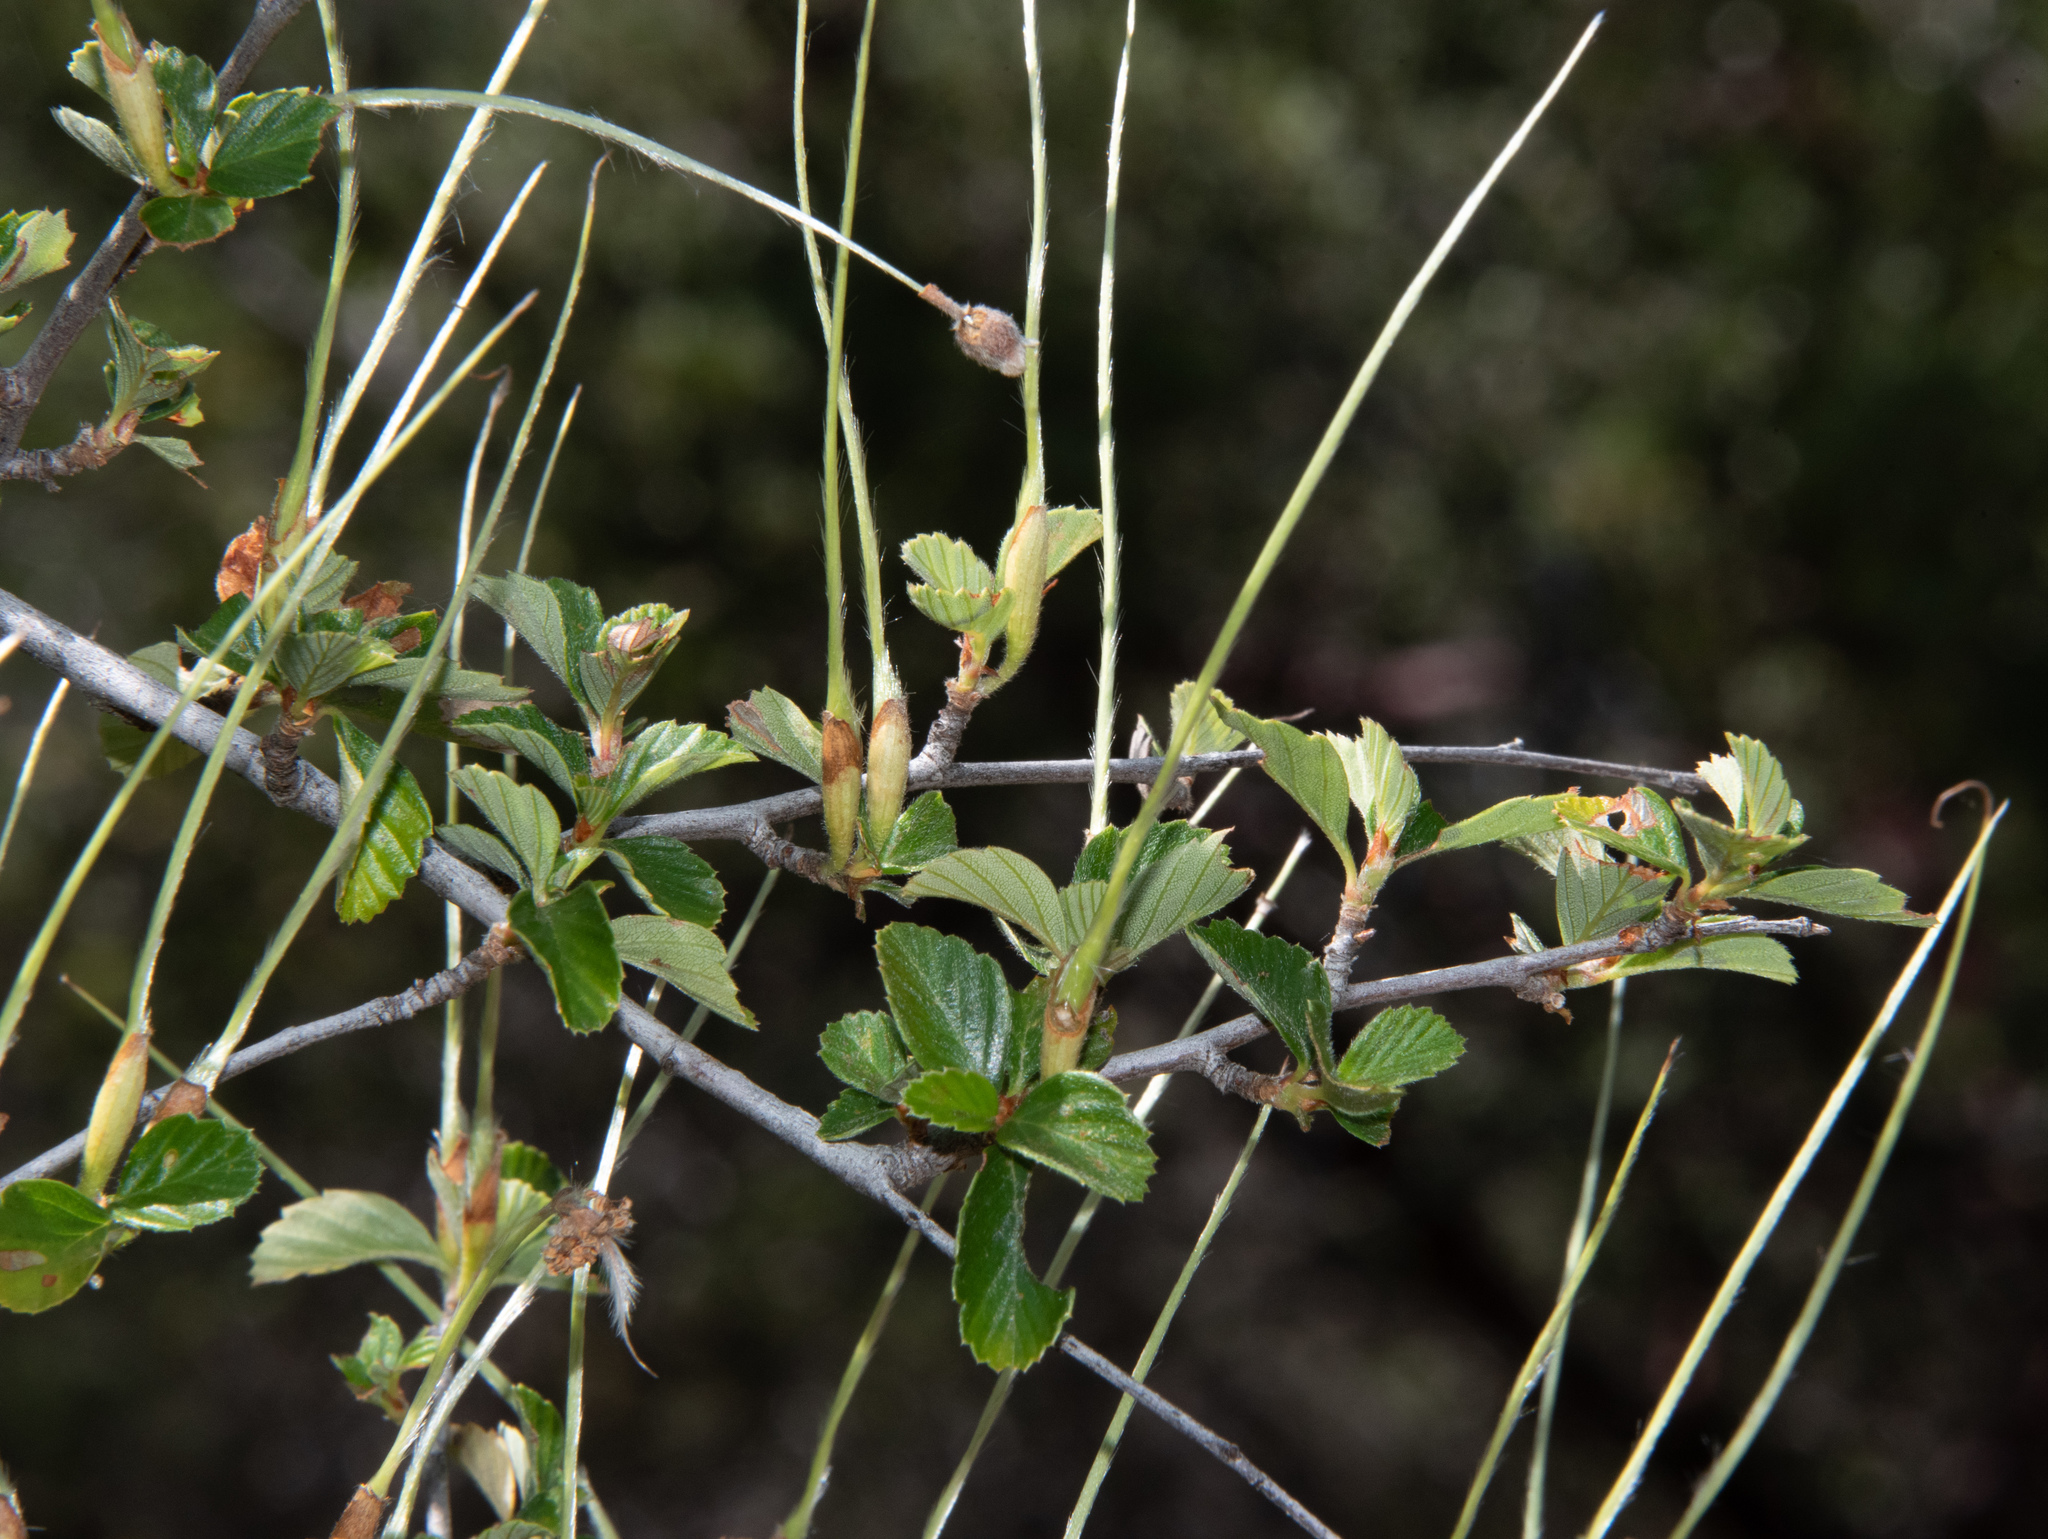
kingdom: Plantae
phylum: Tracheophyta
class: Magnoliopsida
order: Rosales
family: Rosaceae
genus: Cercocarpus
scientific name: Cercocarpus betuloides
